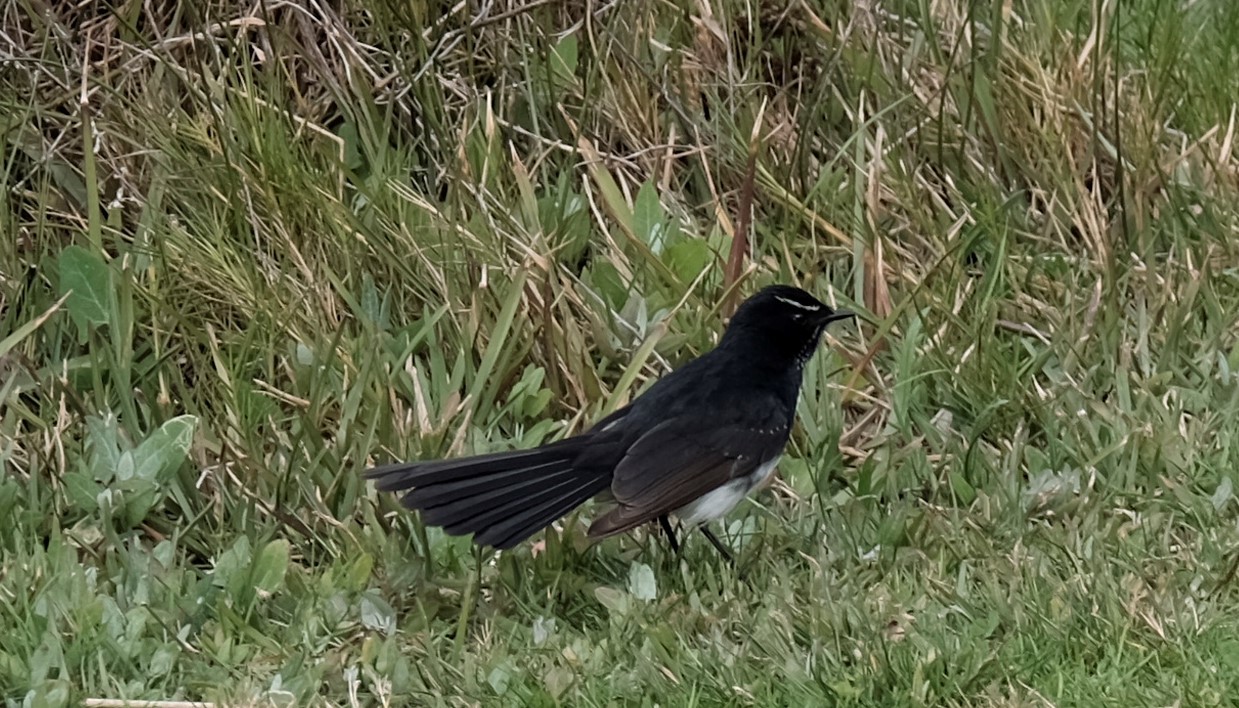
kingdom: Animalia
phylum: Chordata
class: Aves
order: Passeriformes
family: Rhipiduridae
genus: Rhipidura
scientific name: Rhipidura leucophrys
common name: Willie wagtail
